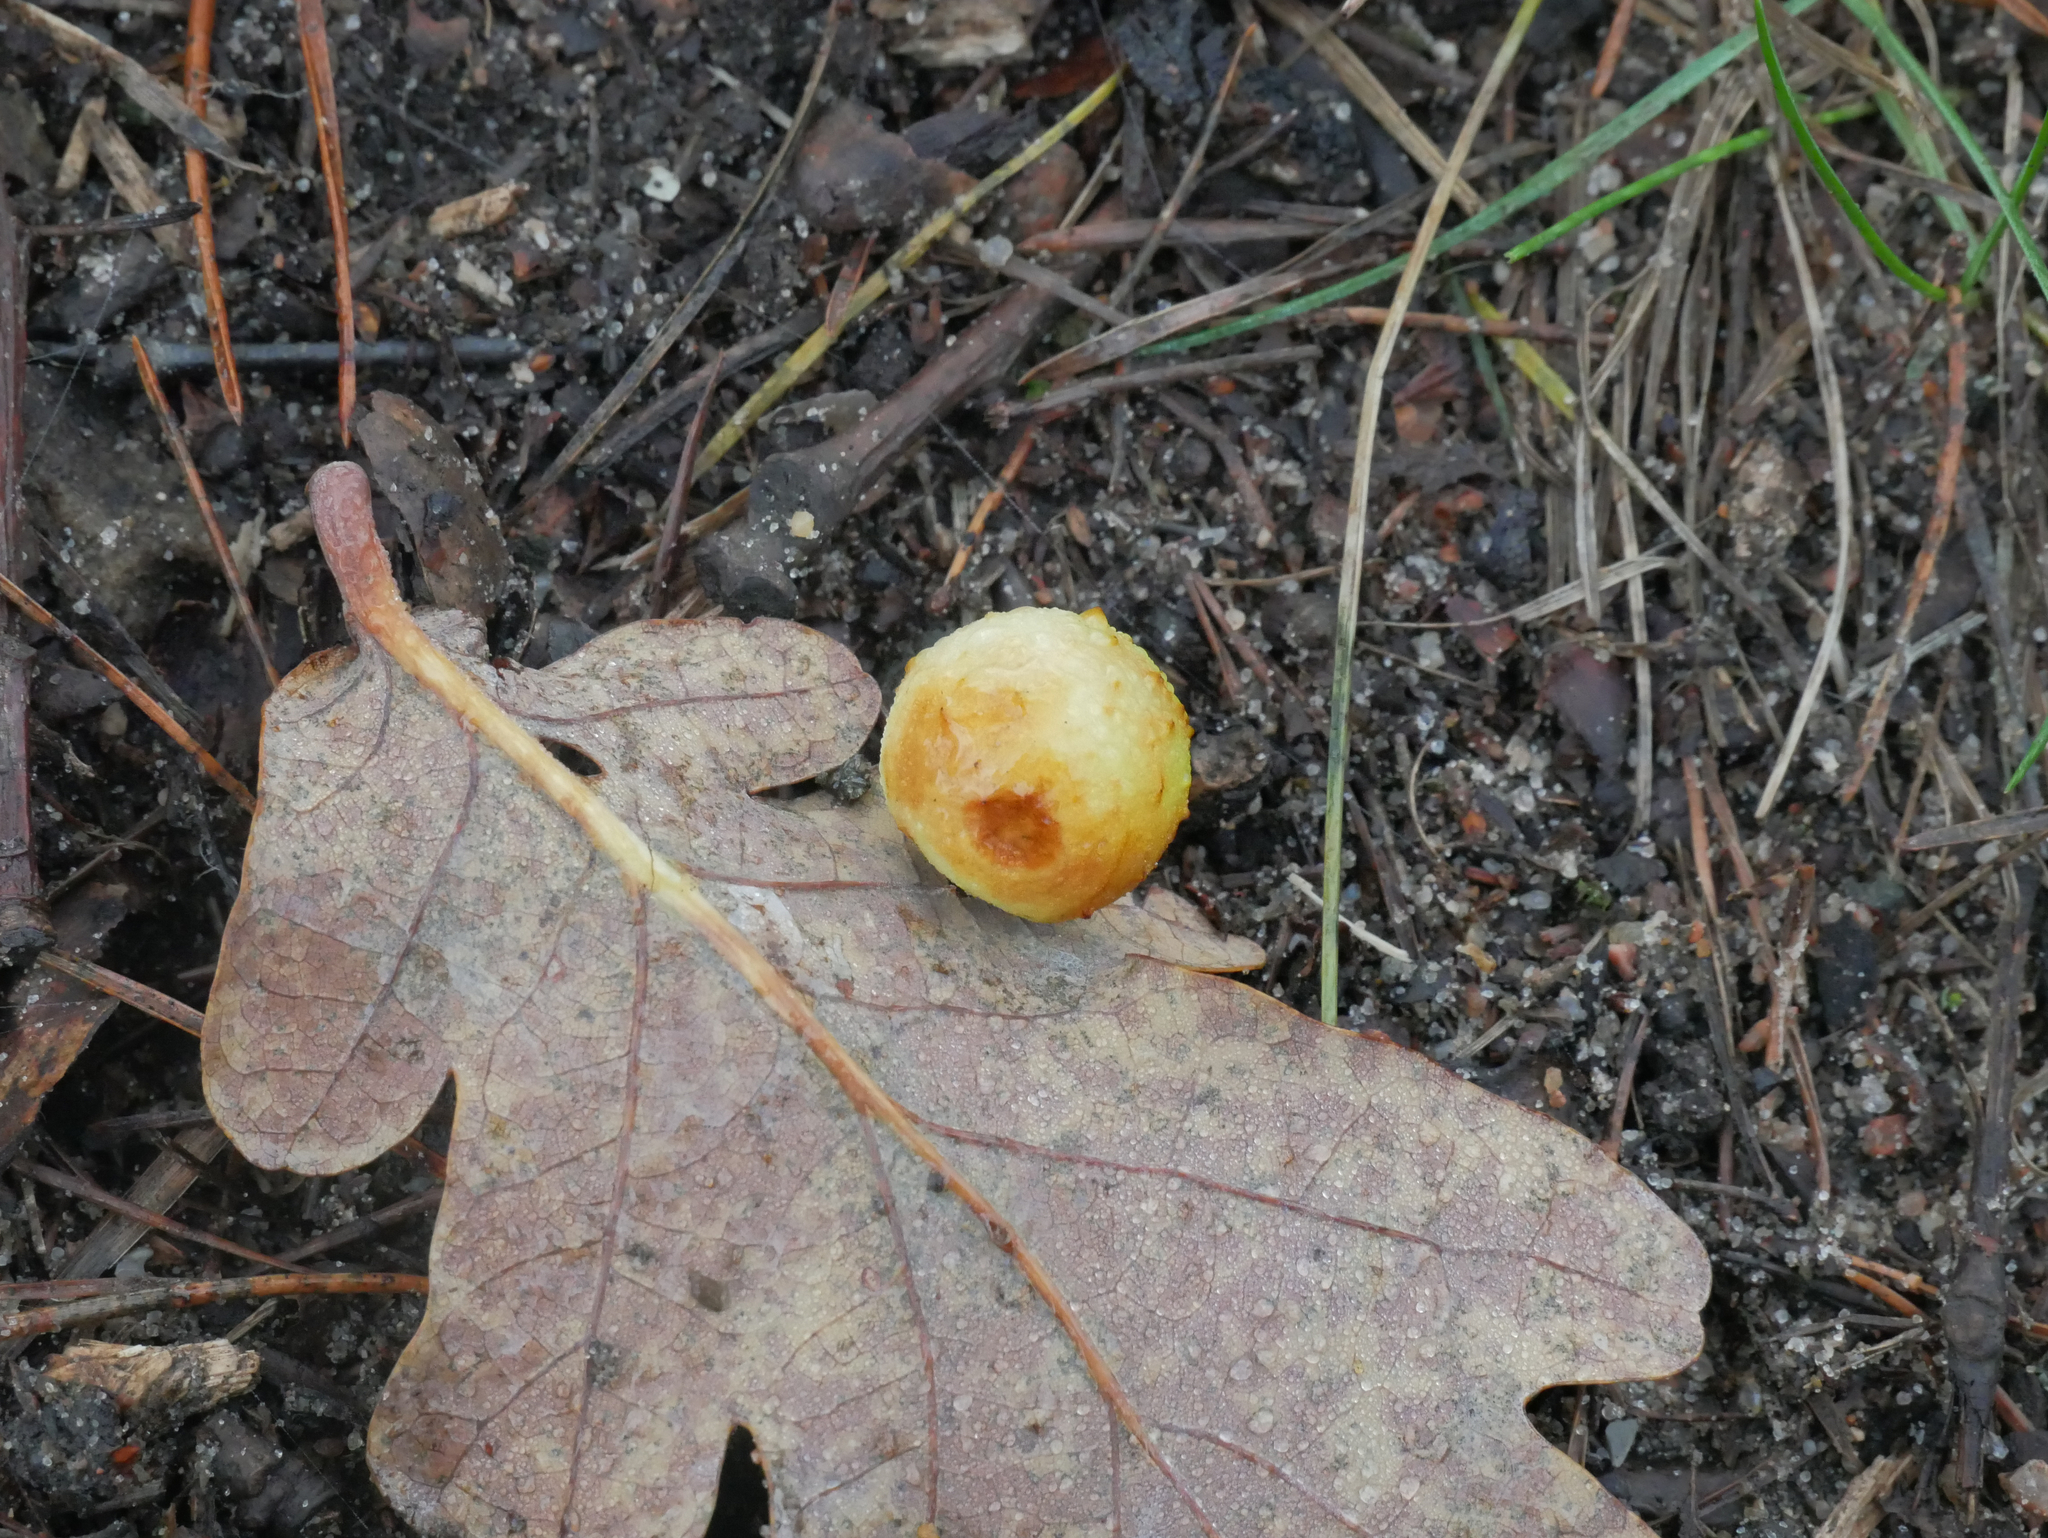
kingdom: Animalia
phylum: Arthropoda
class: Insecta
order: Hymenoptera
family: Cynipidae
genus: Cynips
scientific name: Cynips quercusfolii
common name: Cherry gall
